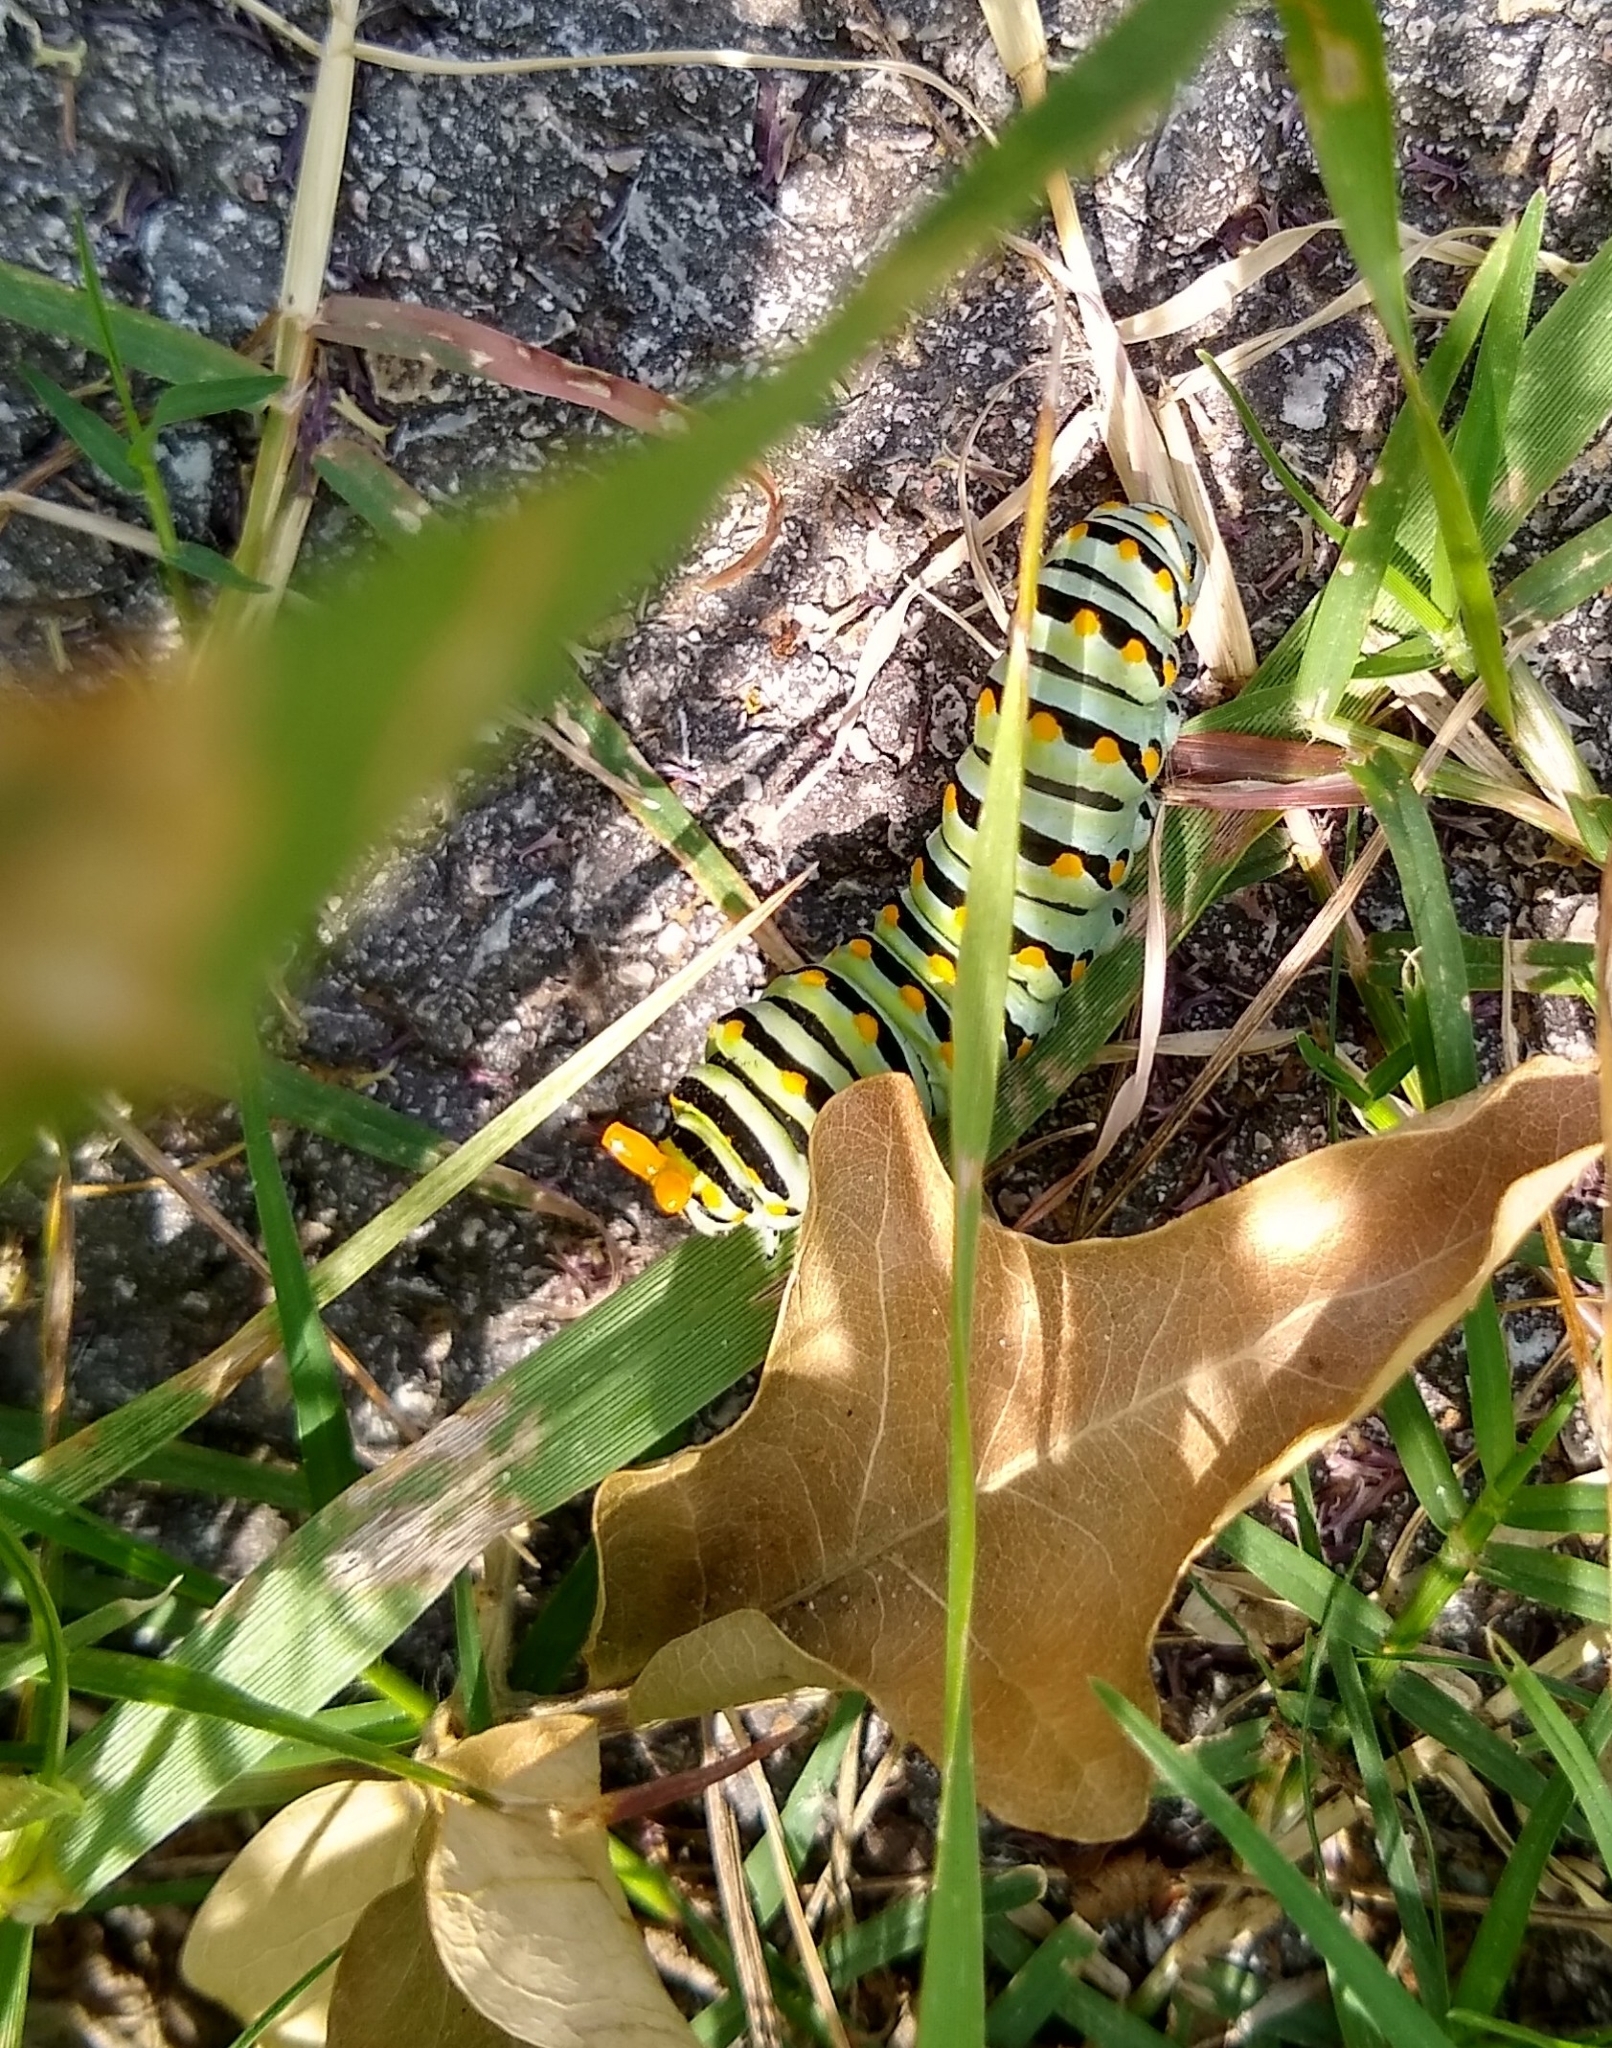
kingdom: Animalia
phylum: Arthropoda
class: Insecta
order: Lepidoptera
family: Papilionidae
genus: Papilio
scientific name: Papilio polyxenes
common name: Black swallowtail
